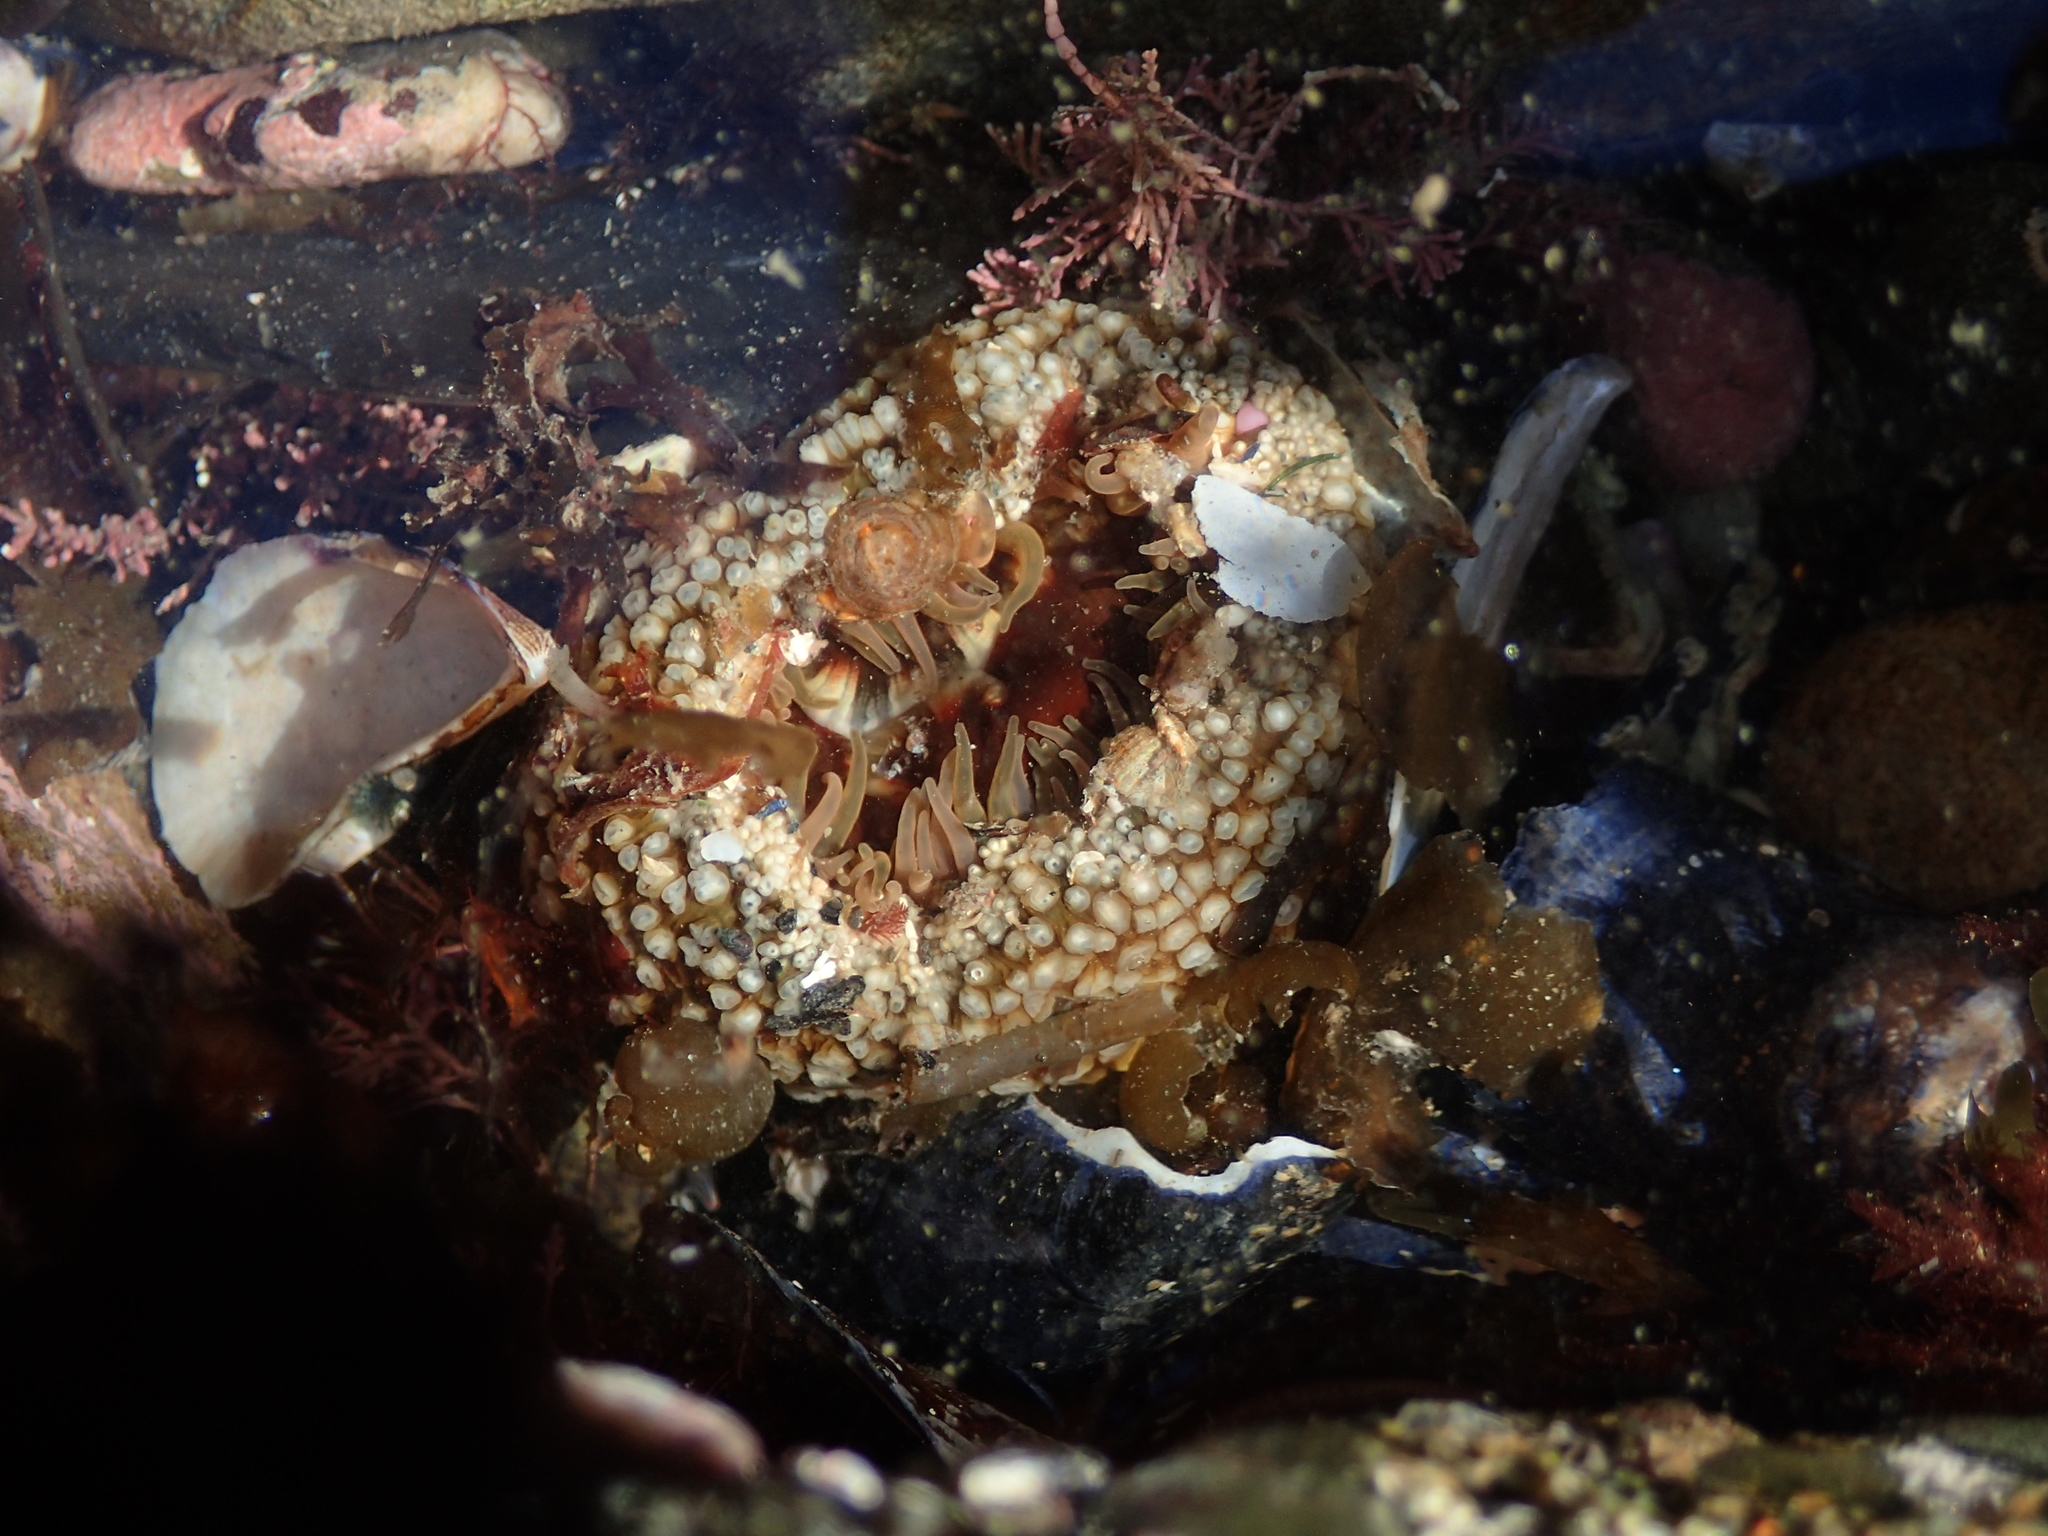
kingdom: Animalia
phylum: Cnidaria
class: Anthozoa
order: Actiniaria
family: Actiniidae
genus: Oulactis
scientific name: Oulactis muscosa
